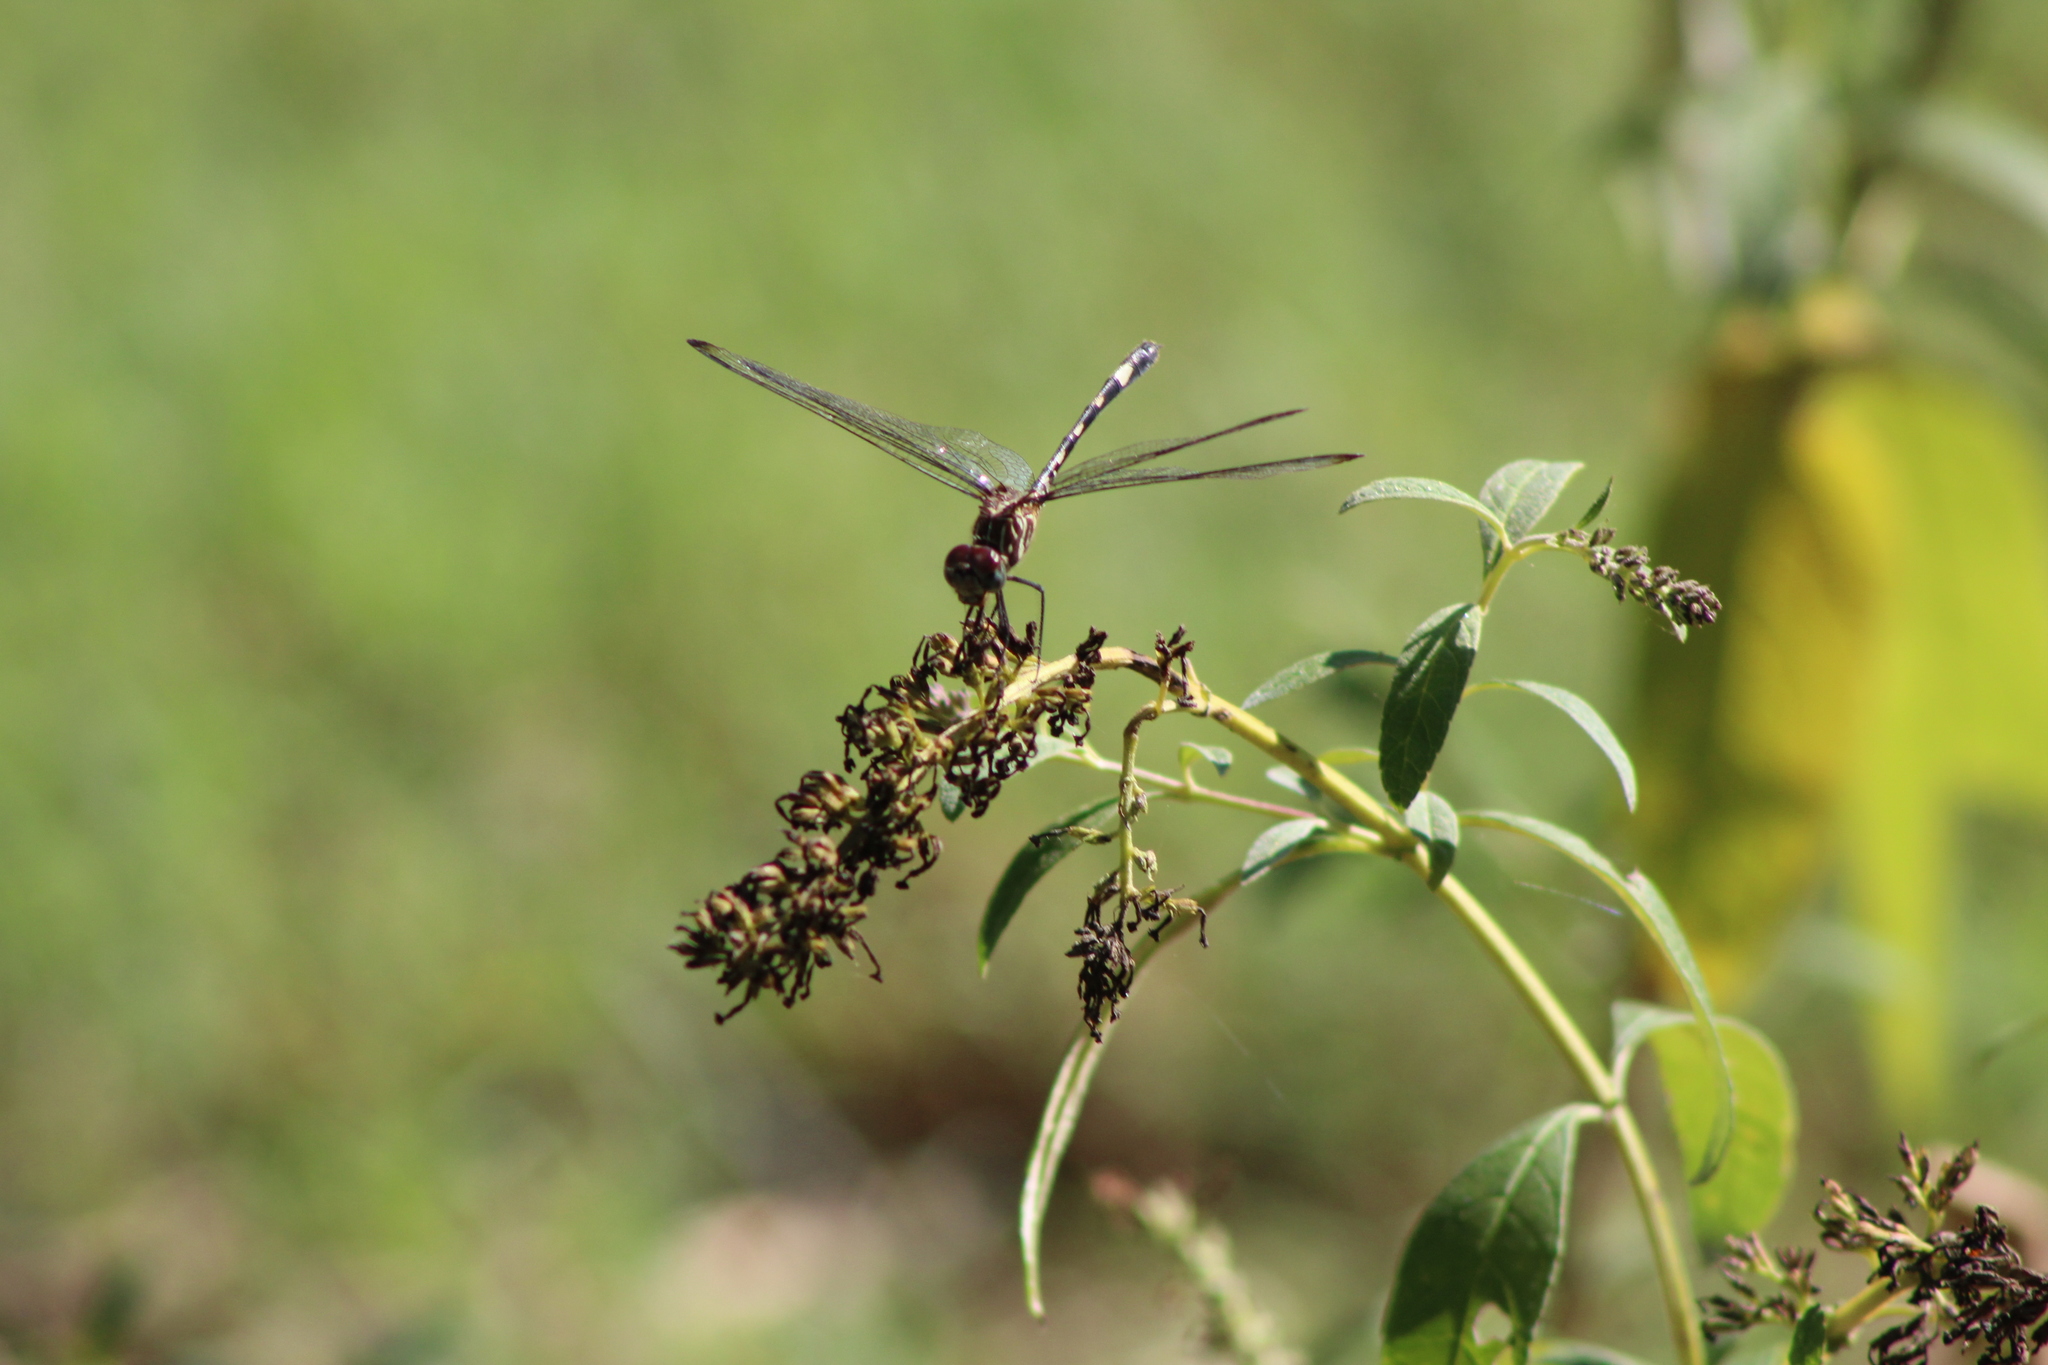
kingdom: Animalia
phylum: Arthropoda
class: Insecta
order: Odonata
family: Libellulidae
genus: Dythemis
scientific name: Dythemis velox
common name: Swift setwing
